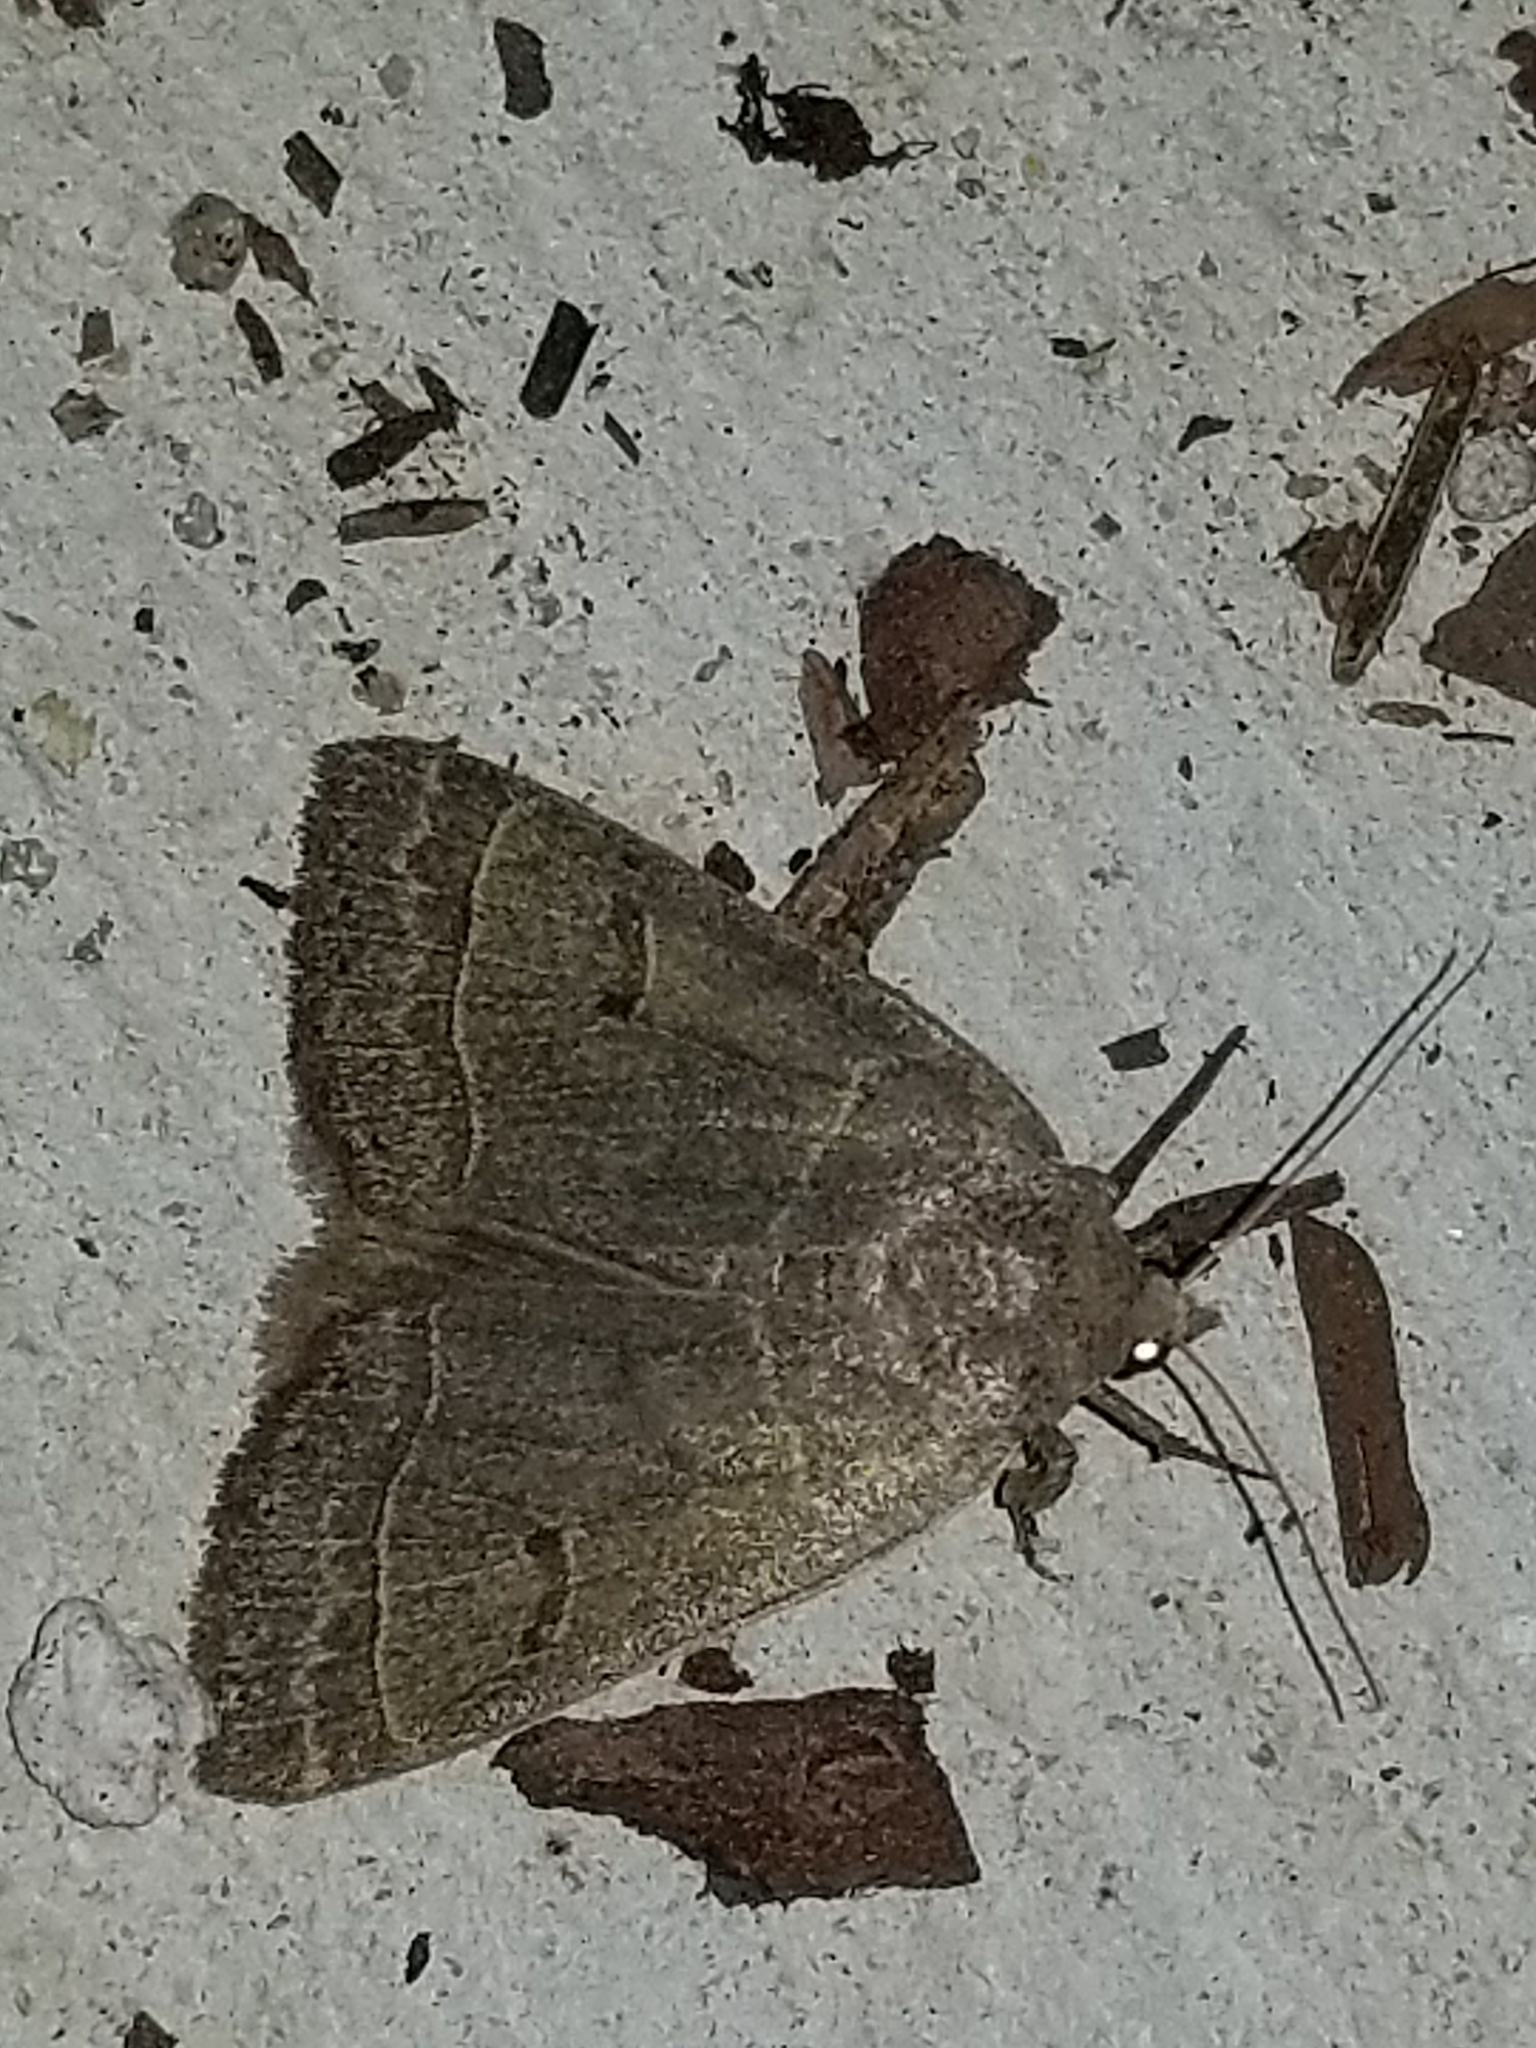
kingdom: Animalia
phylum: Arthropoda
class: Insecta
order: Lepidoptera
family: Erebidae
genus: Phoberia
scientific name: Phoberia atomaris
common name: Common oak moth
